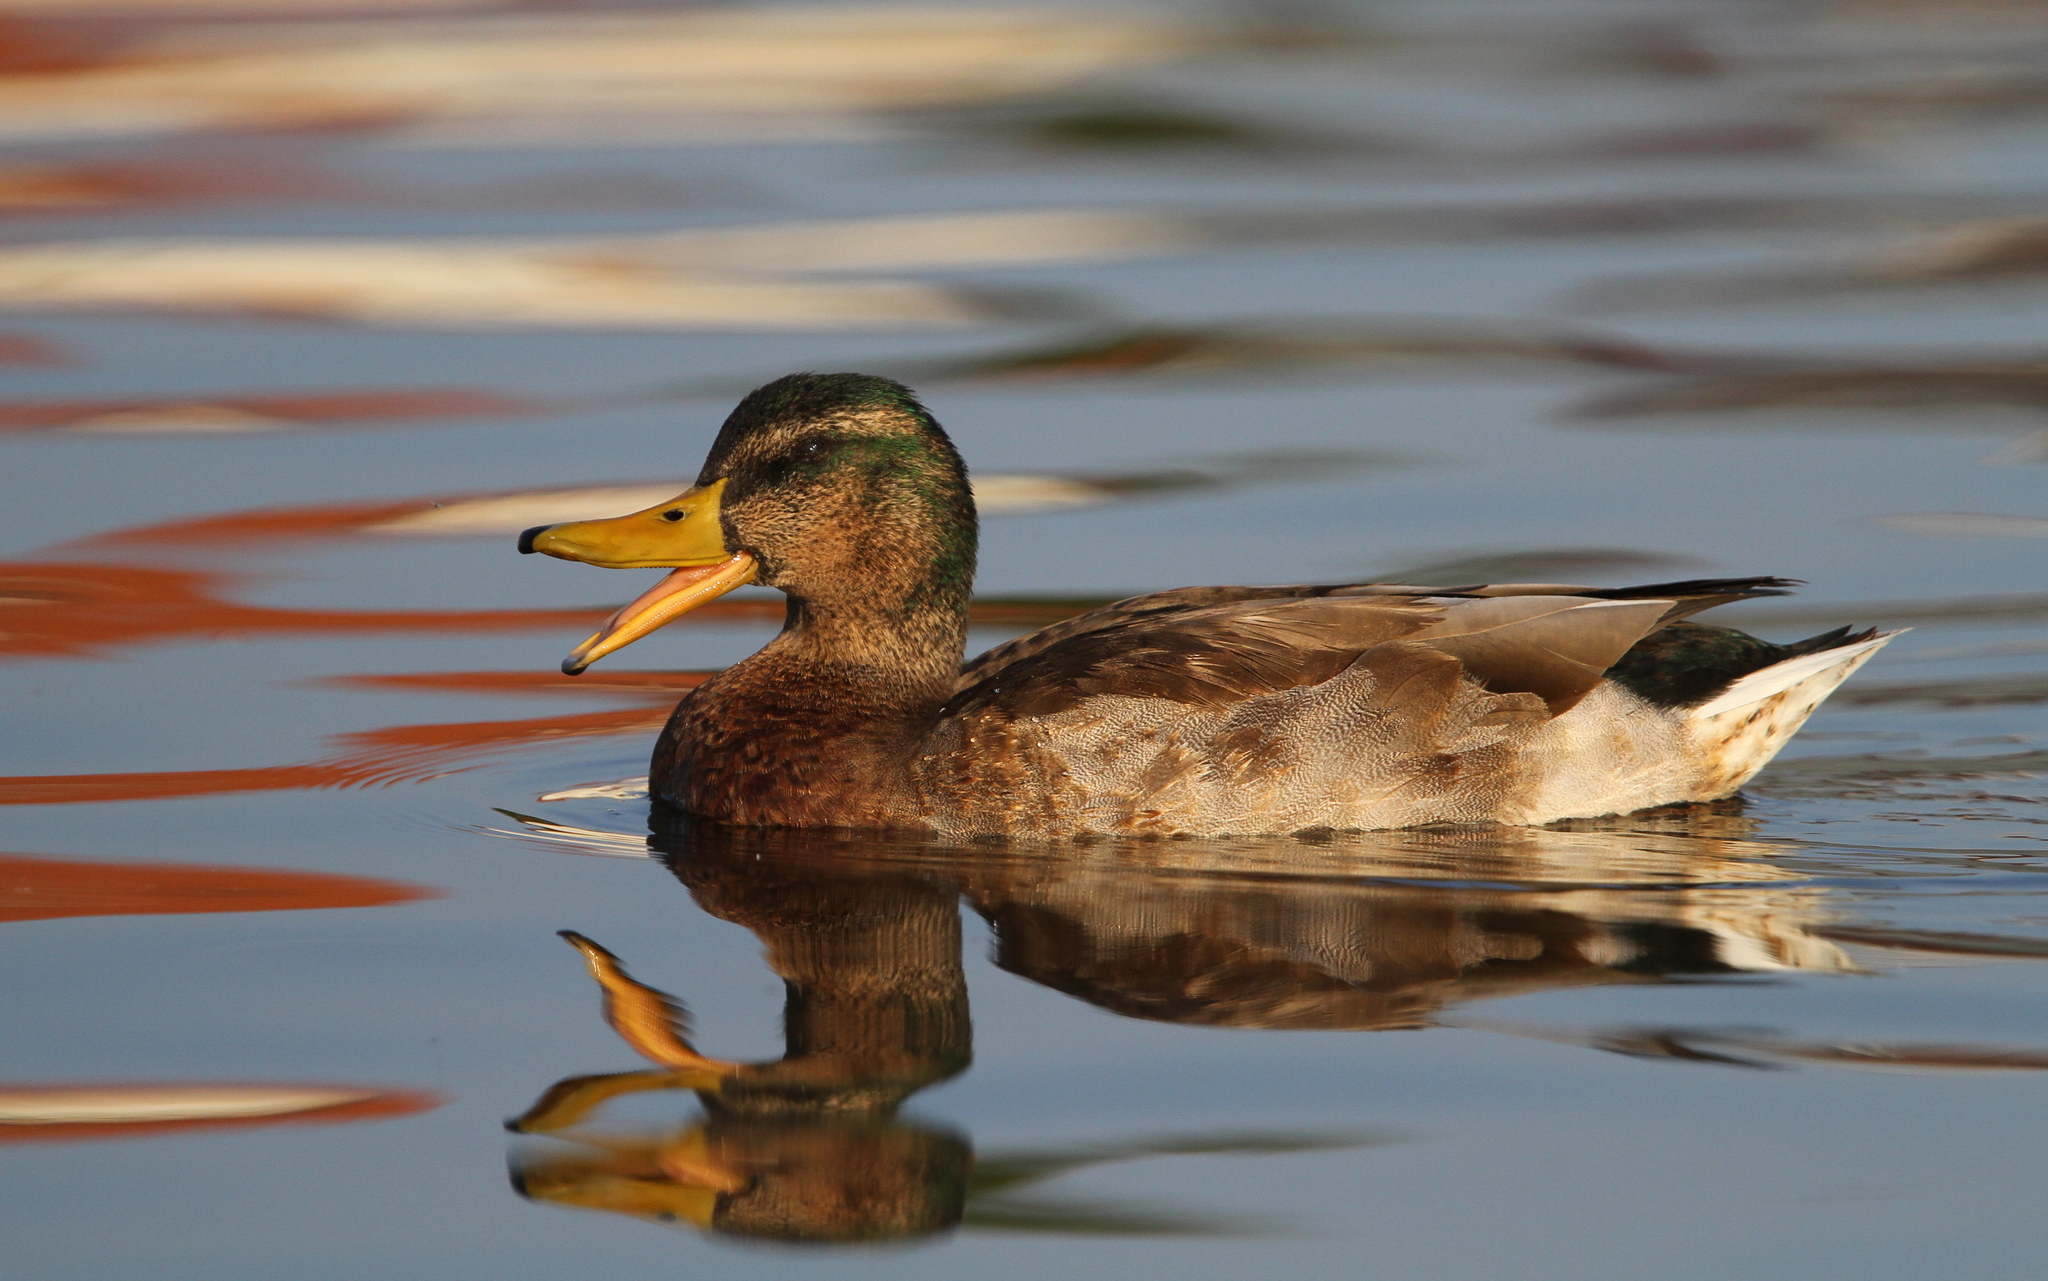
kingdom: Animalia
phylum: Chordata
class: Aves
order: Anseriformes
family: Anatidae
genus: Anas
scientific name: Anas platyrhynchos
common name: Mallard
